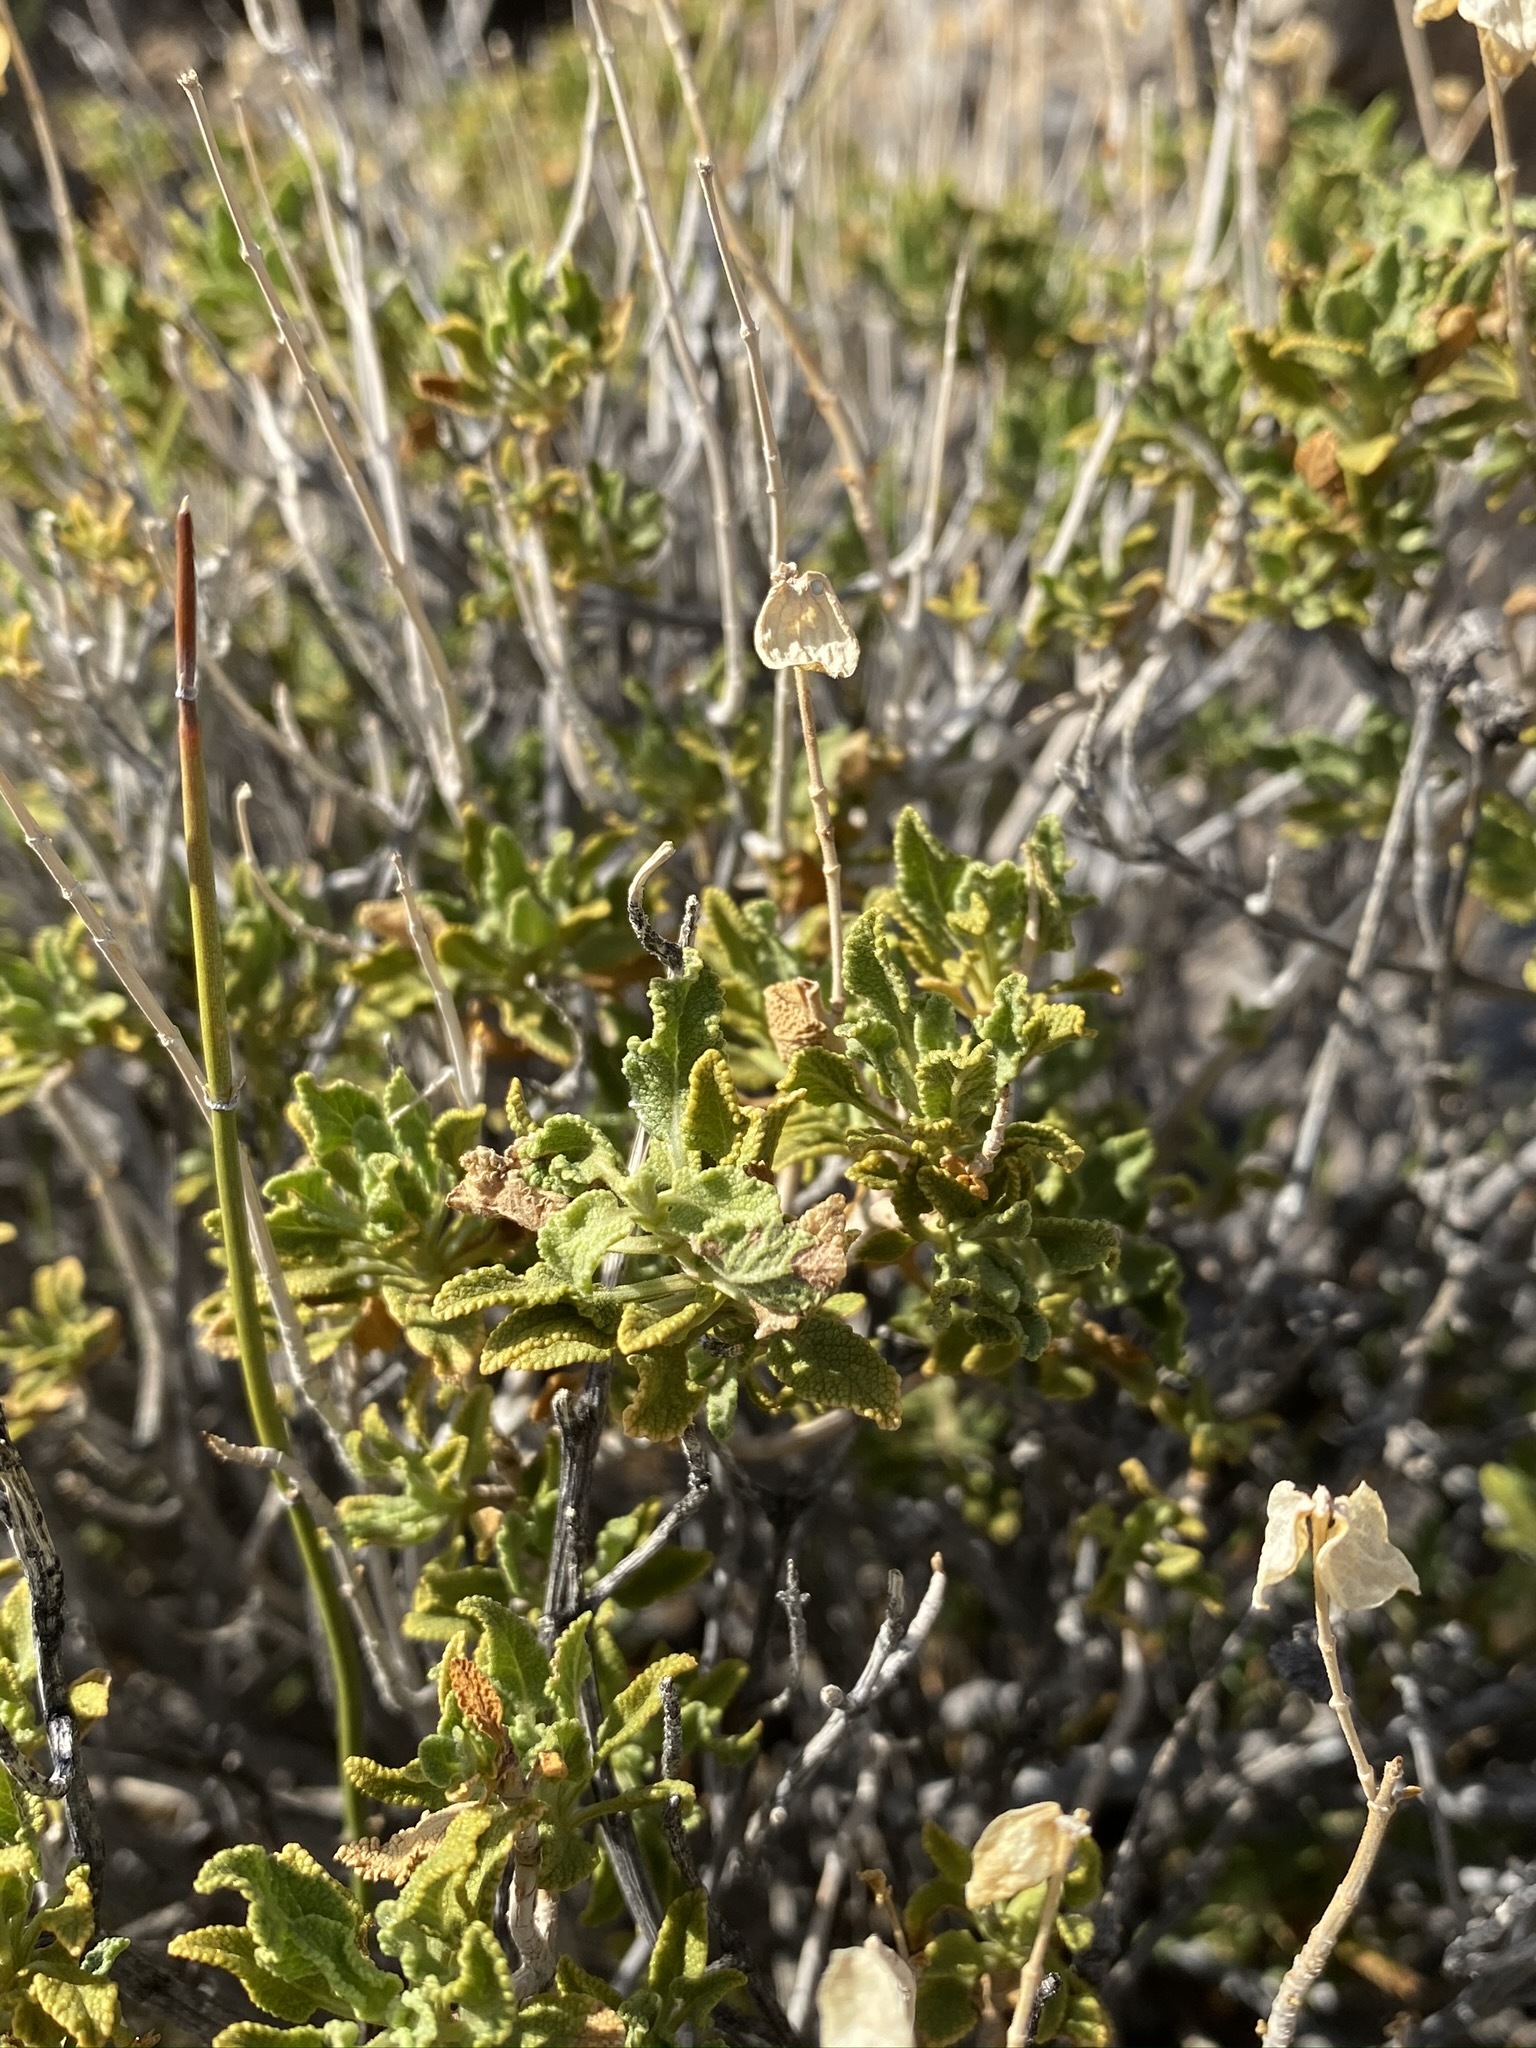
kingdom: Plantae
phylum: Tracheophyta
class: Magnoliopsida
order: Lamiales
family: Lamiaceae
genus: Salvia
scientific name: Salvia mohavensis
